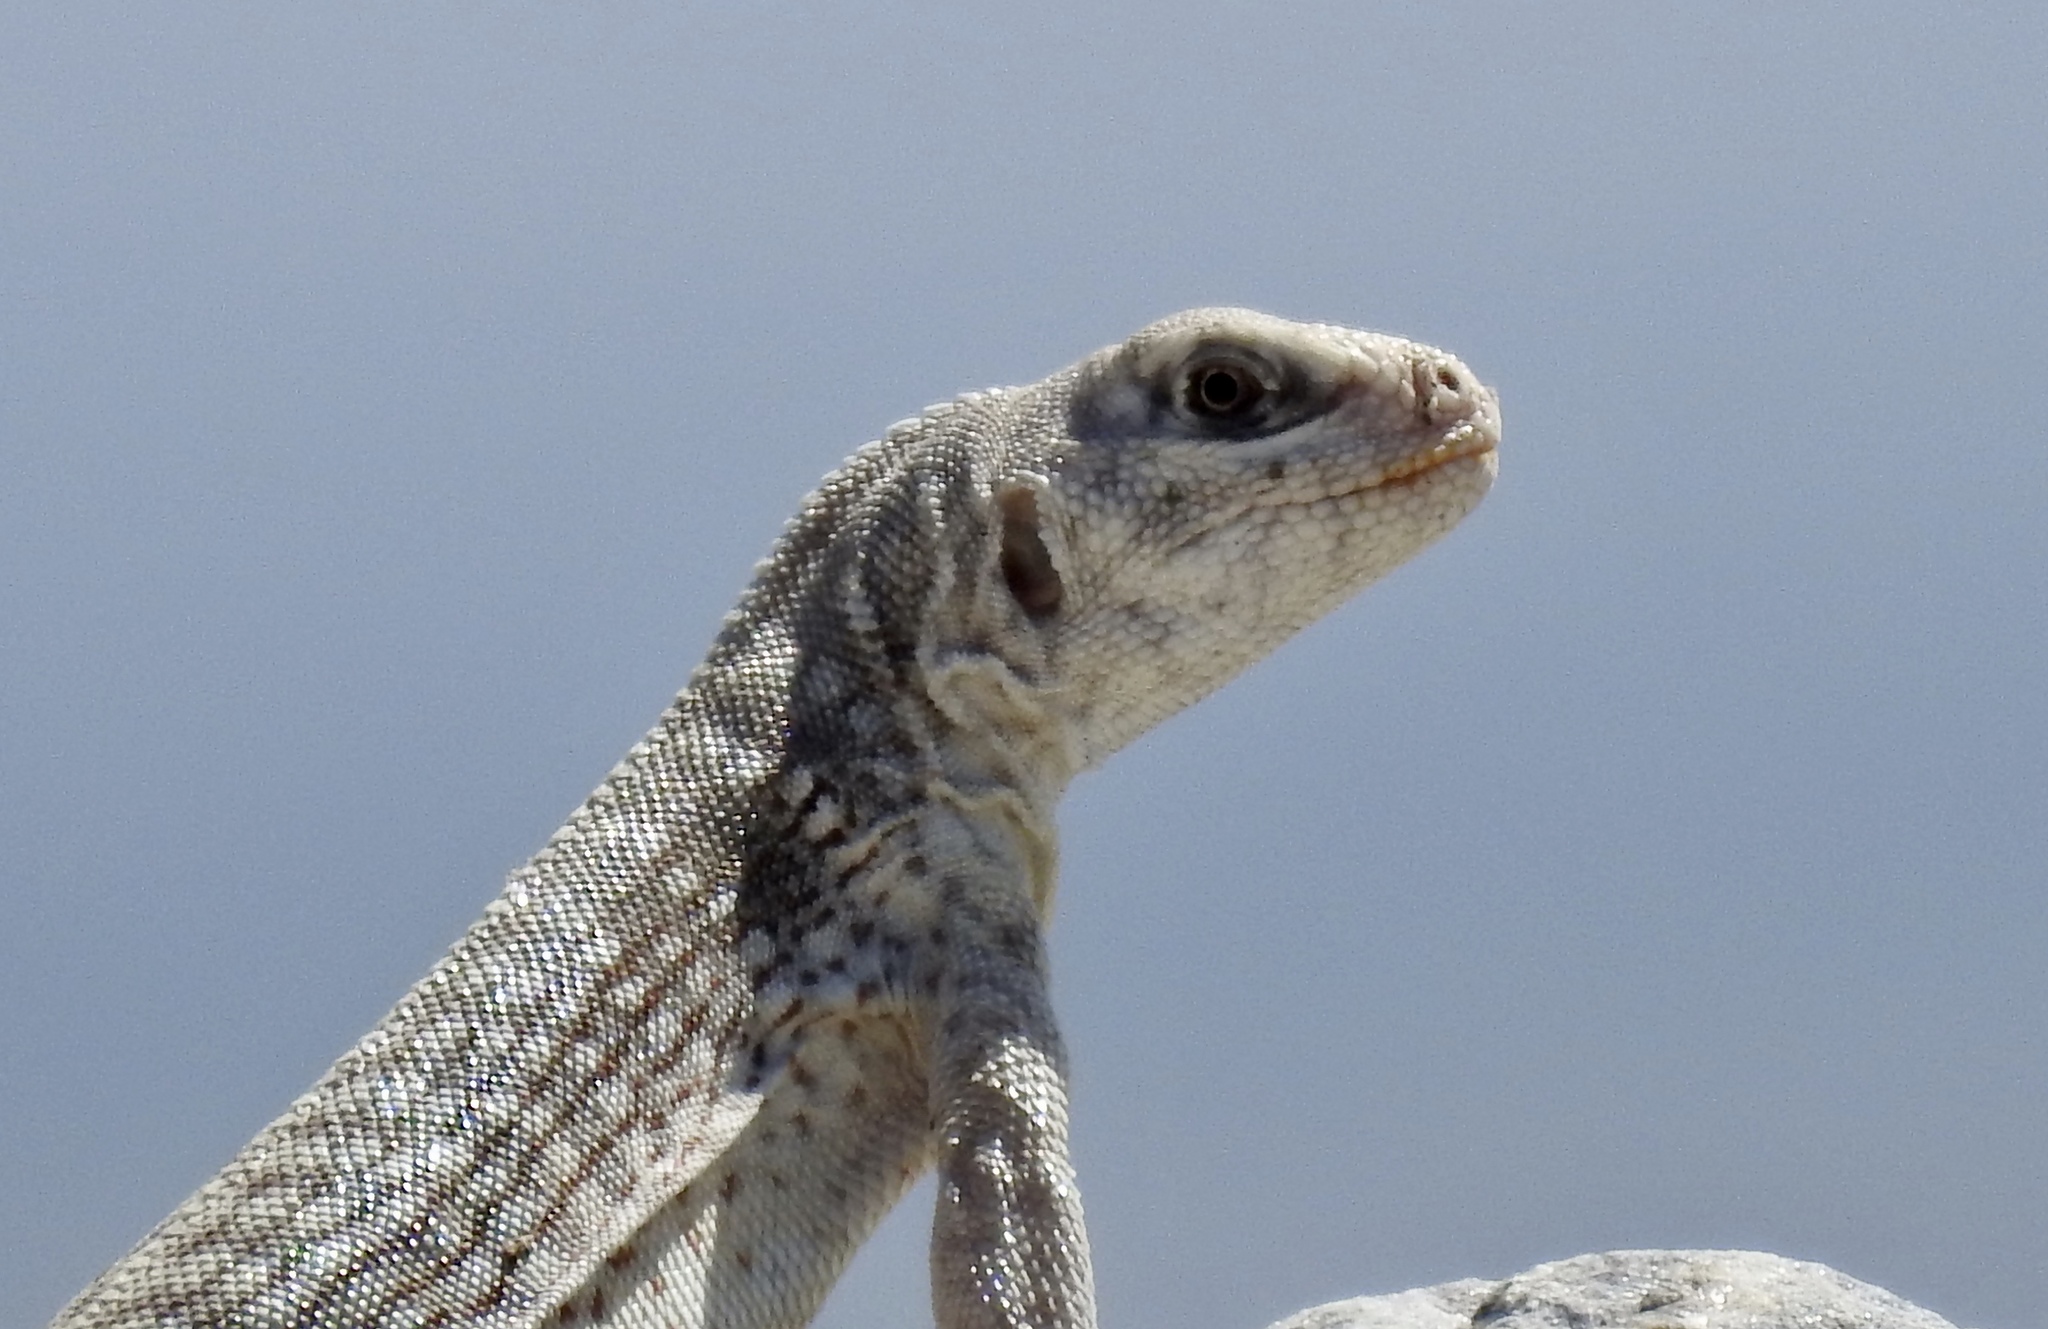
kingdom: Animalia
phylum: Chordata
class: Squamata
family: Iguanidae
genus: Dipsosaurus
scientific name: Dipsosaurus dorsalis
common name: Desert iguana
